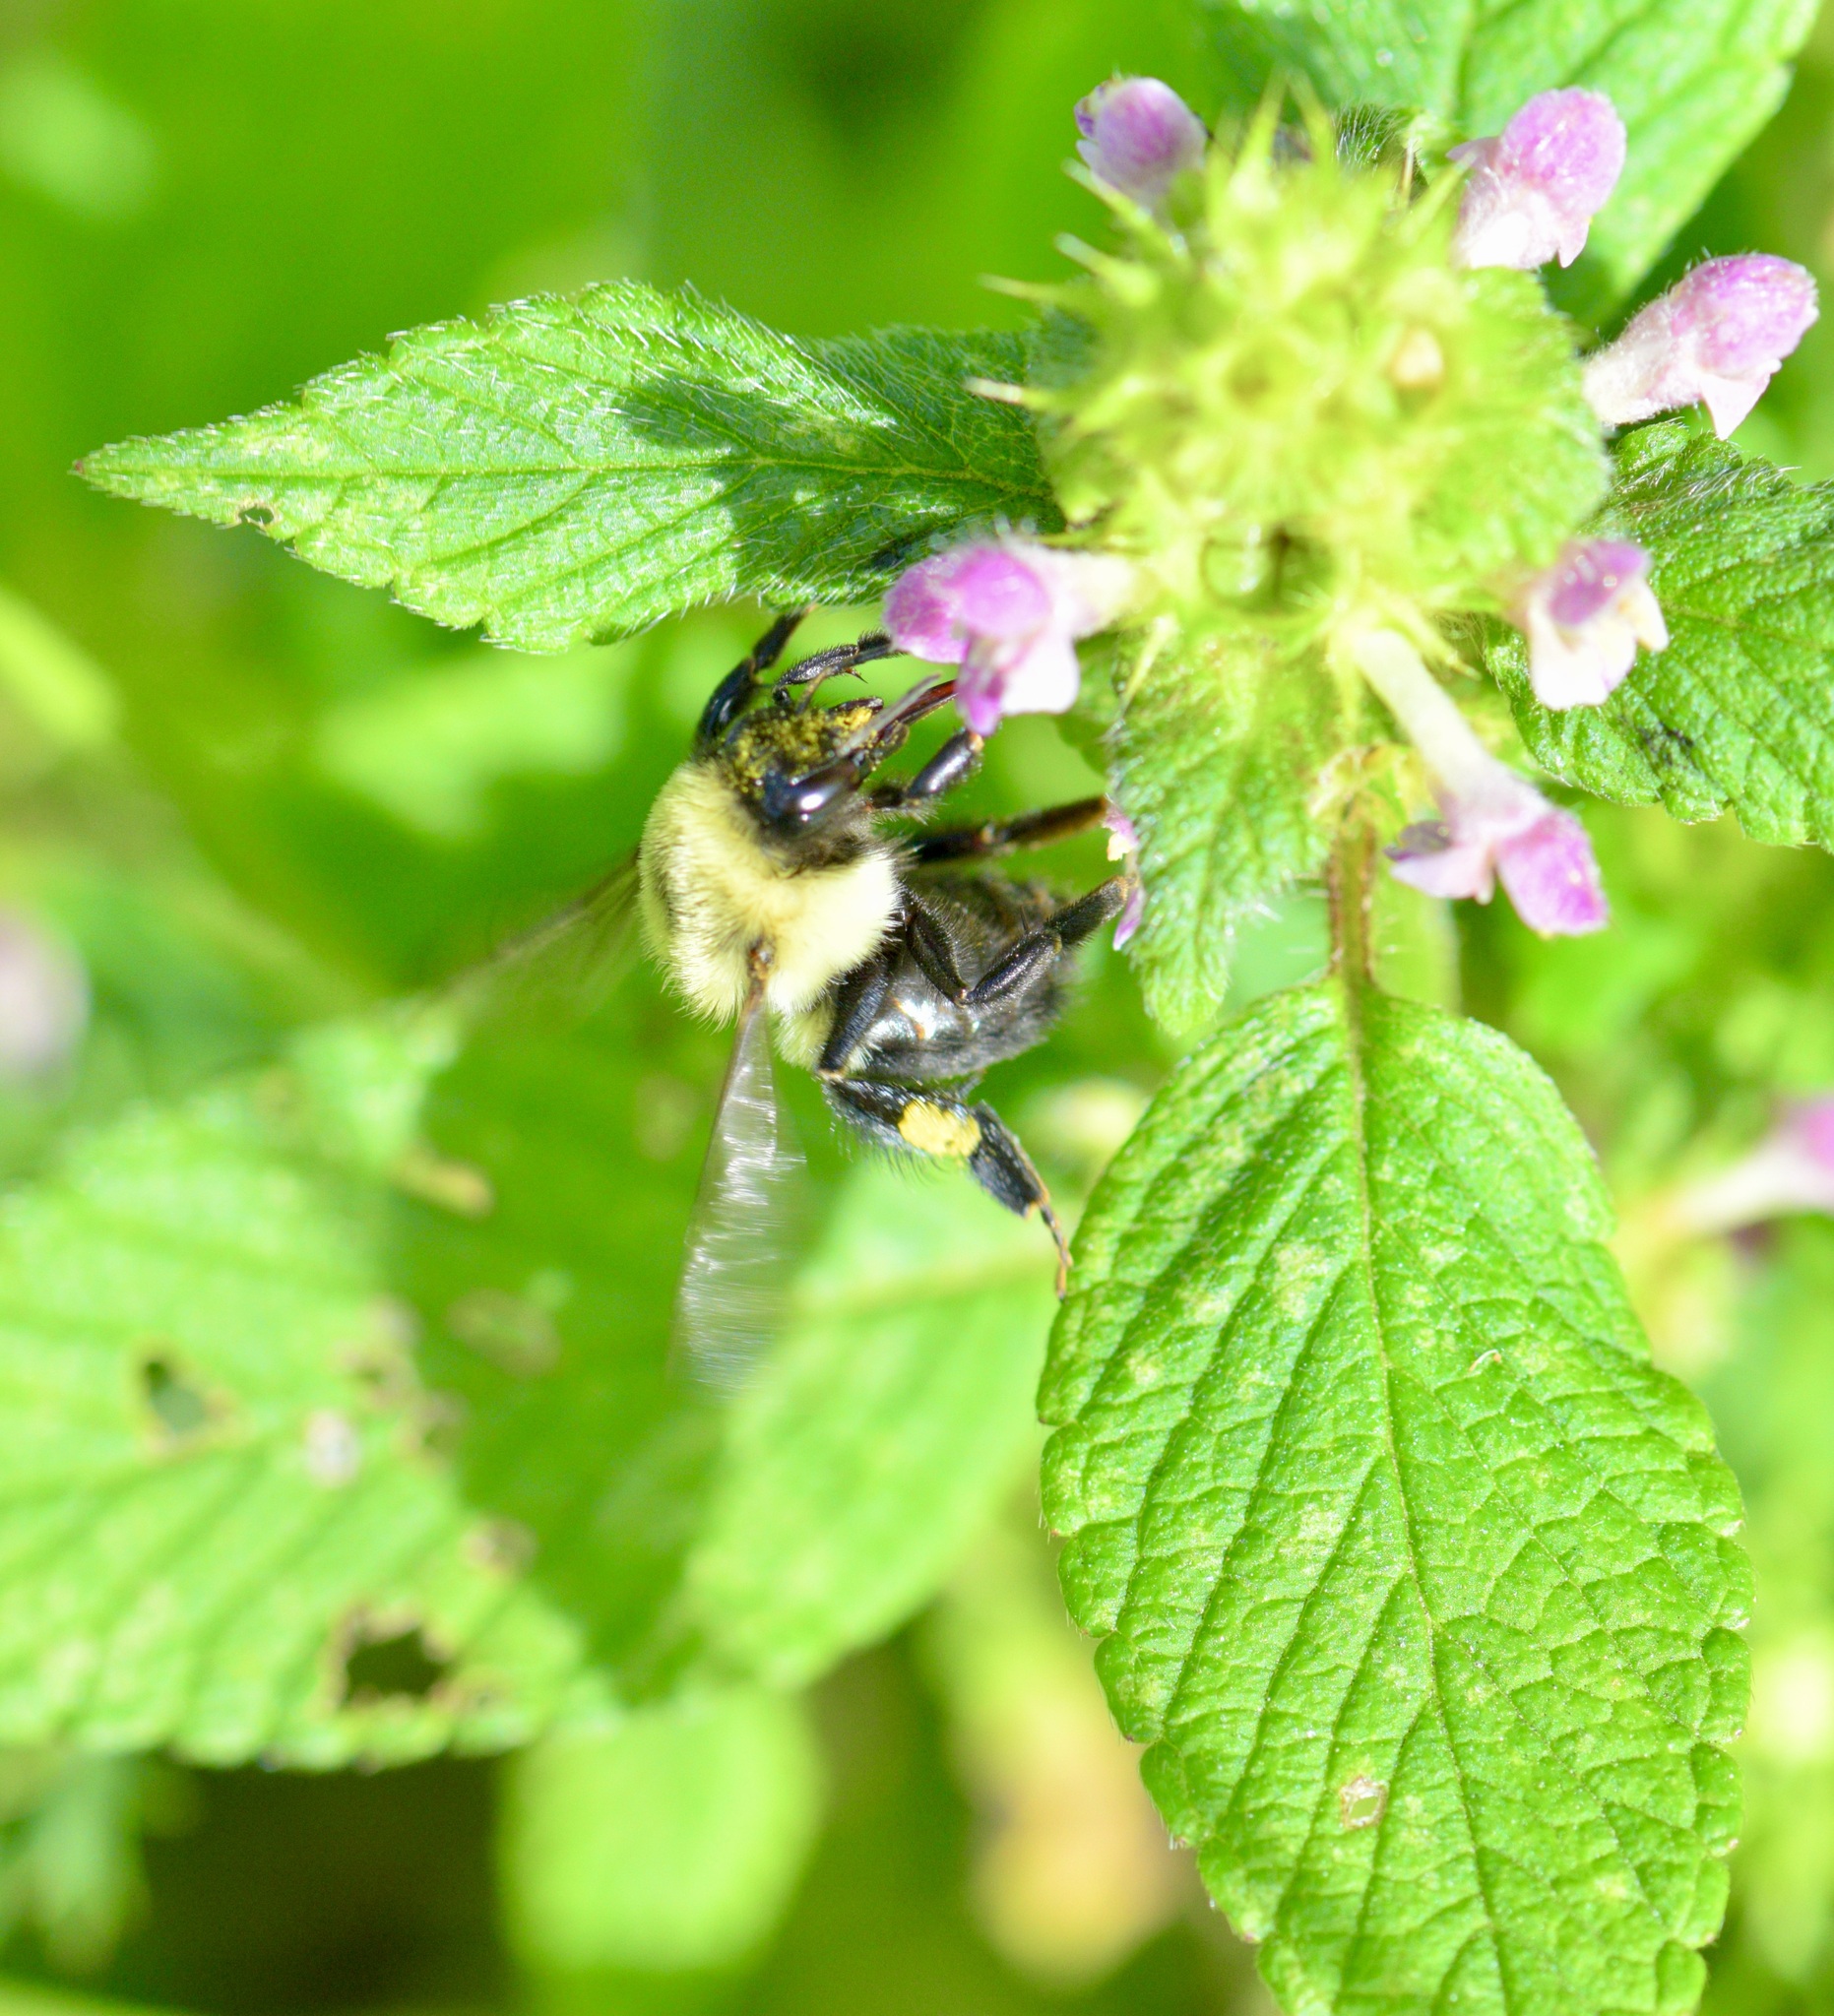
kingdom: Animalia
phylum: Arthropoda
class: Insecta
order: Hymenoptera
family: Apidae
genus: Bombus
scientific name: Bombus impatiens
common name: Common eastern bumble bee
